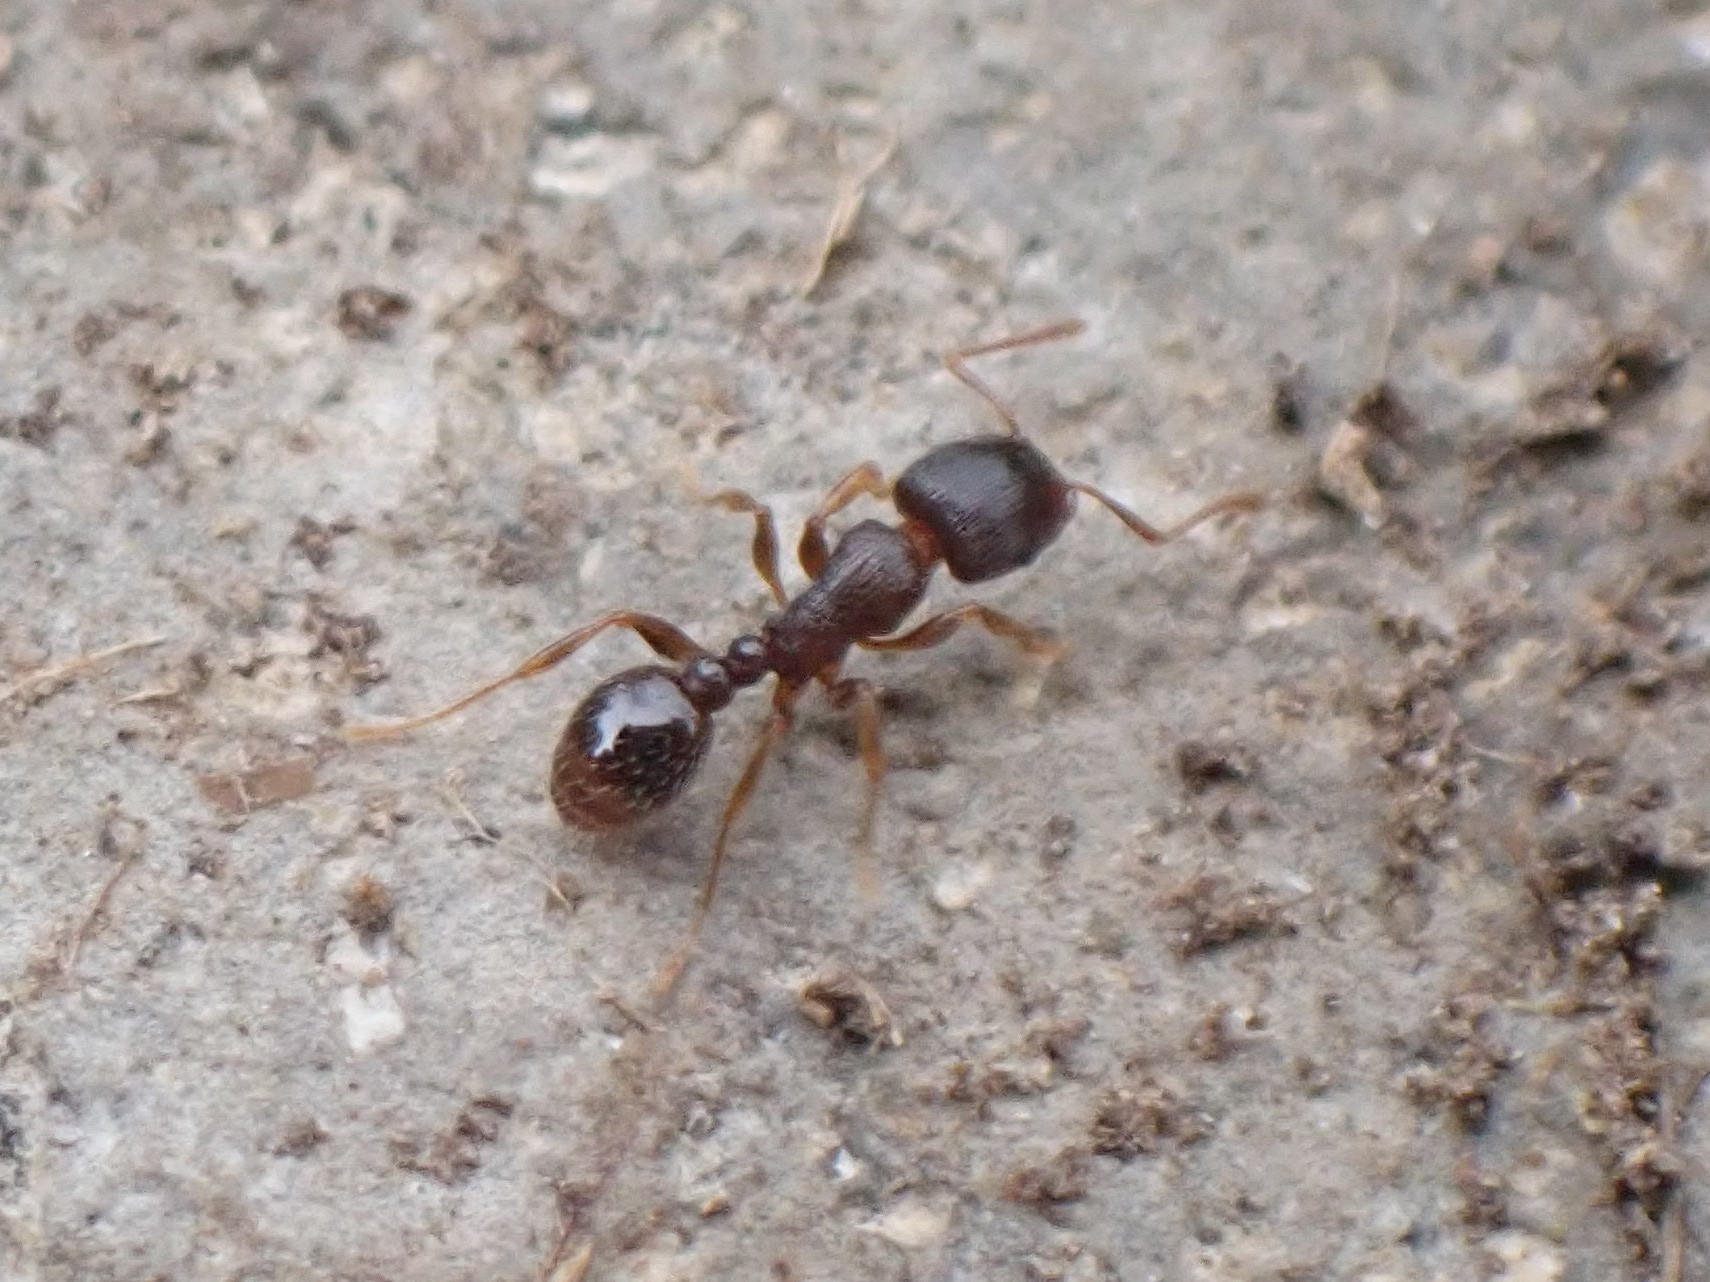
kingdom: Animalia
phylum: Arthropoda
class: Insecta
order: Hymenoptera
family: Formicidae
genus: Tetramorium
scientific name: Tetramorium immigrans
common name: Pavement ant
